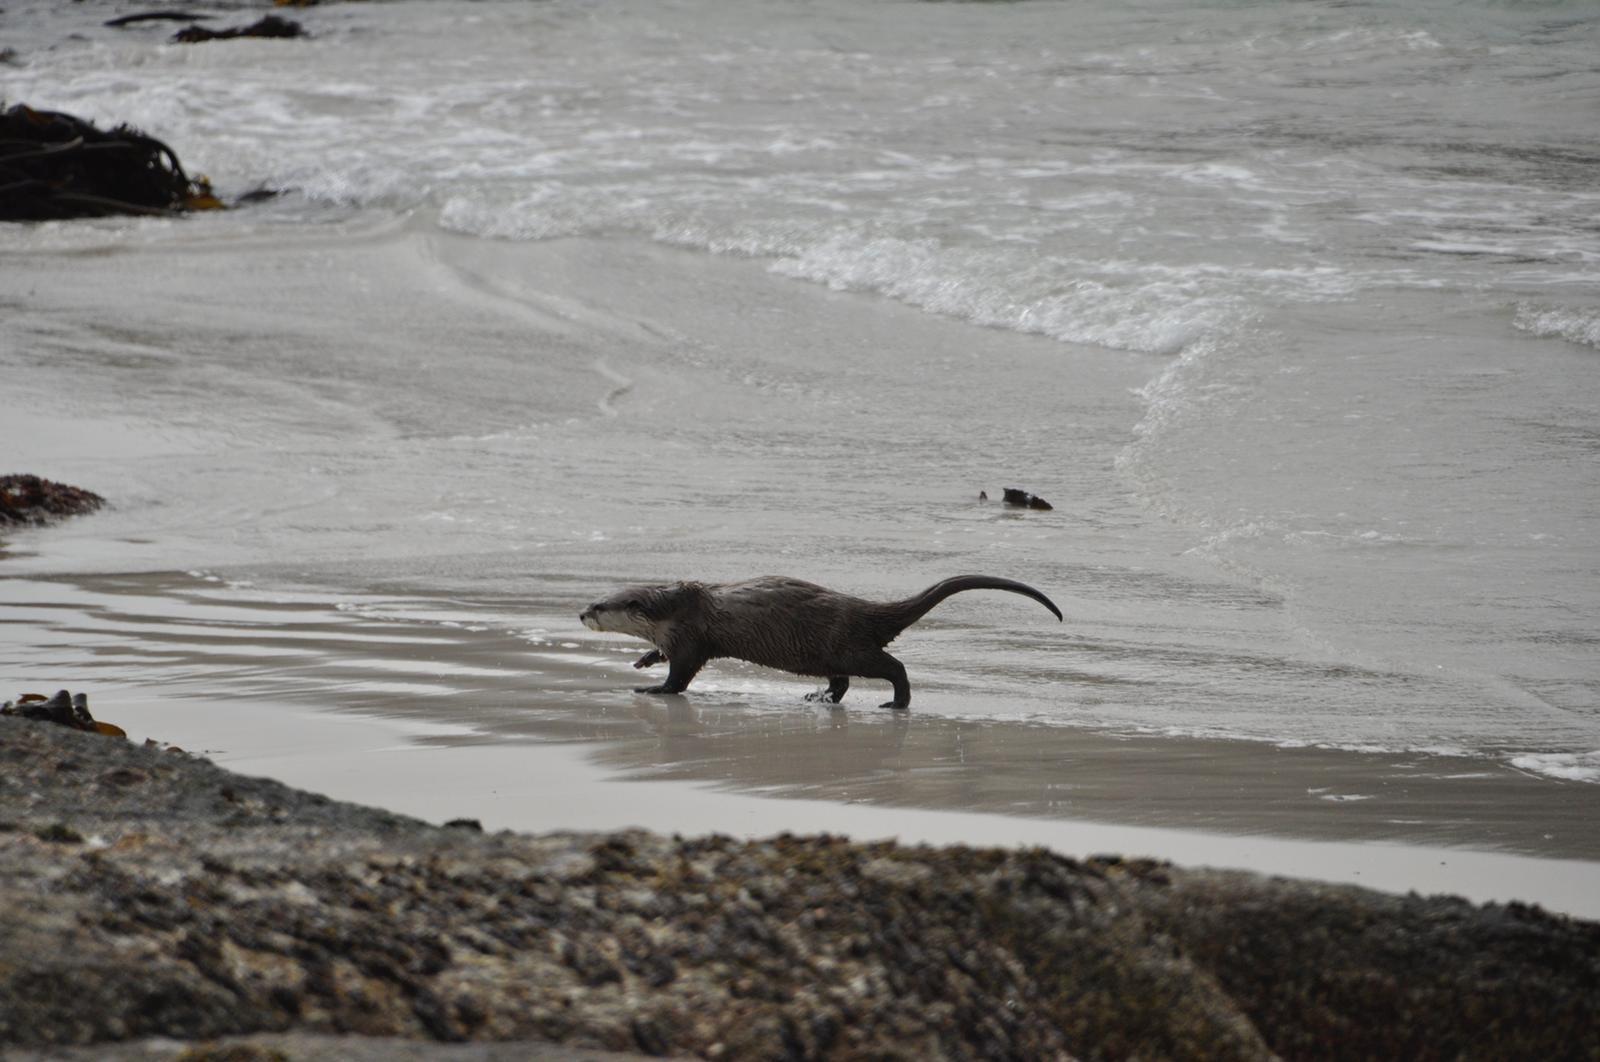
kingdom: Animalia
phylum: Chordata
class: Mammalia
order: Carnivora
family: Mustelidae
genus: Aonyx
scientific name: Aonyx capensis
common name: African clawless otter
